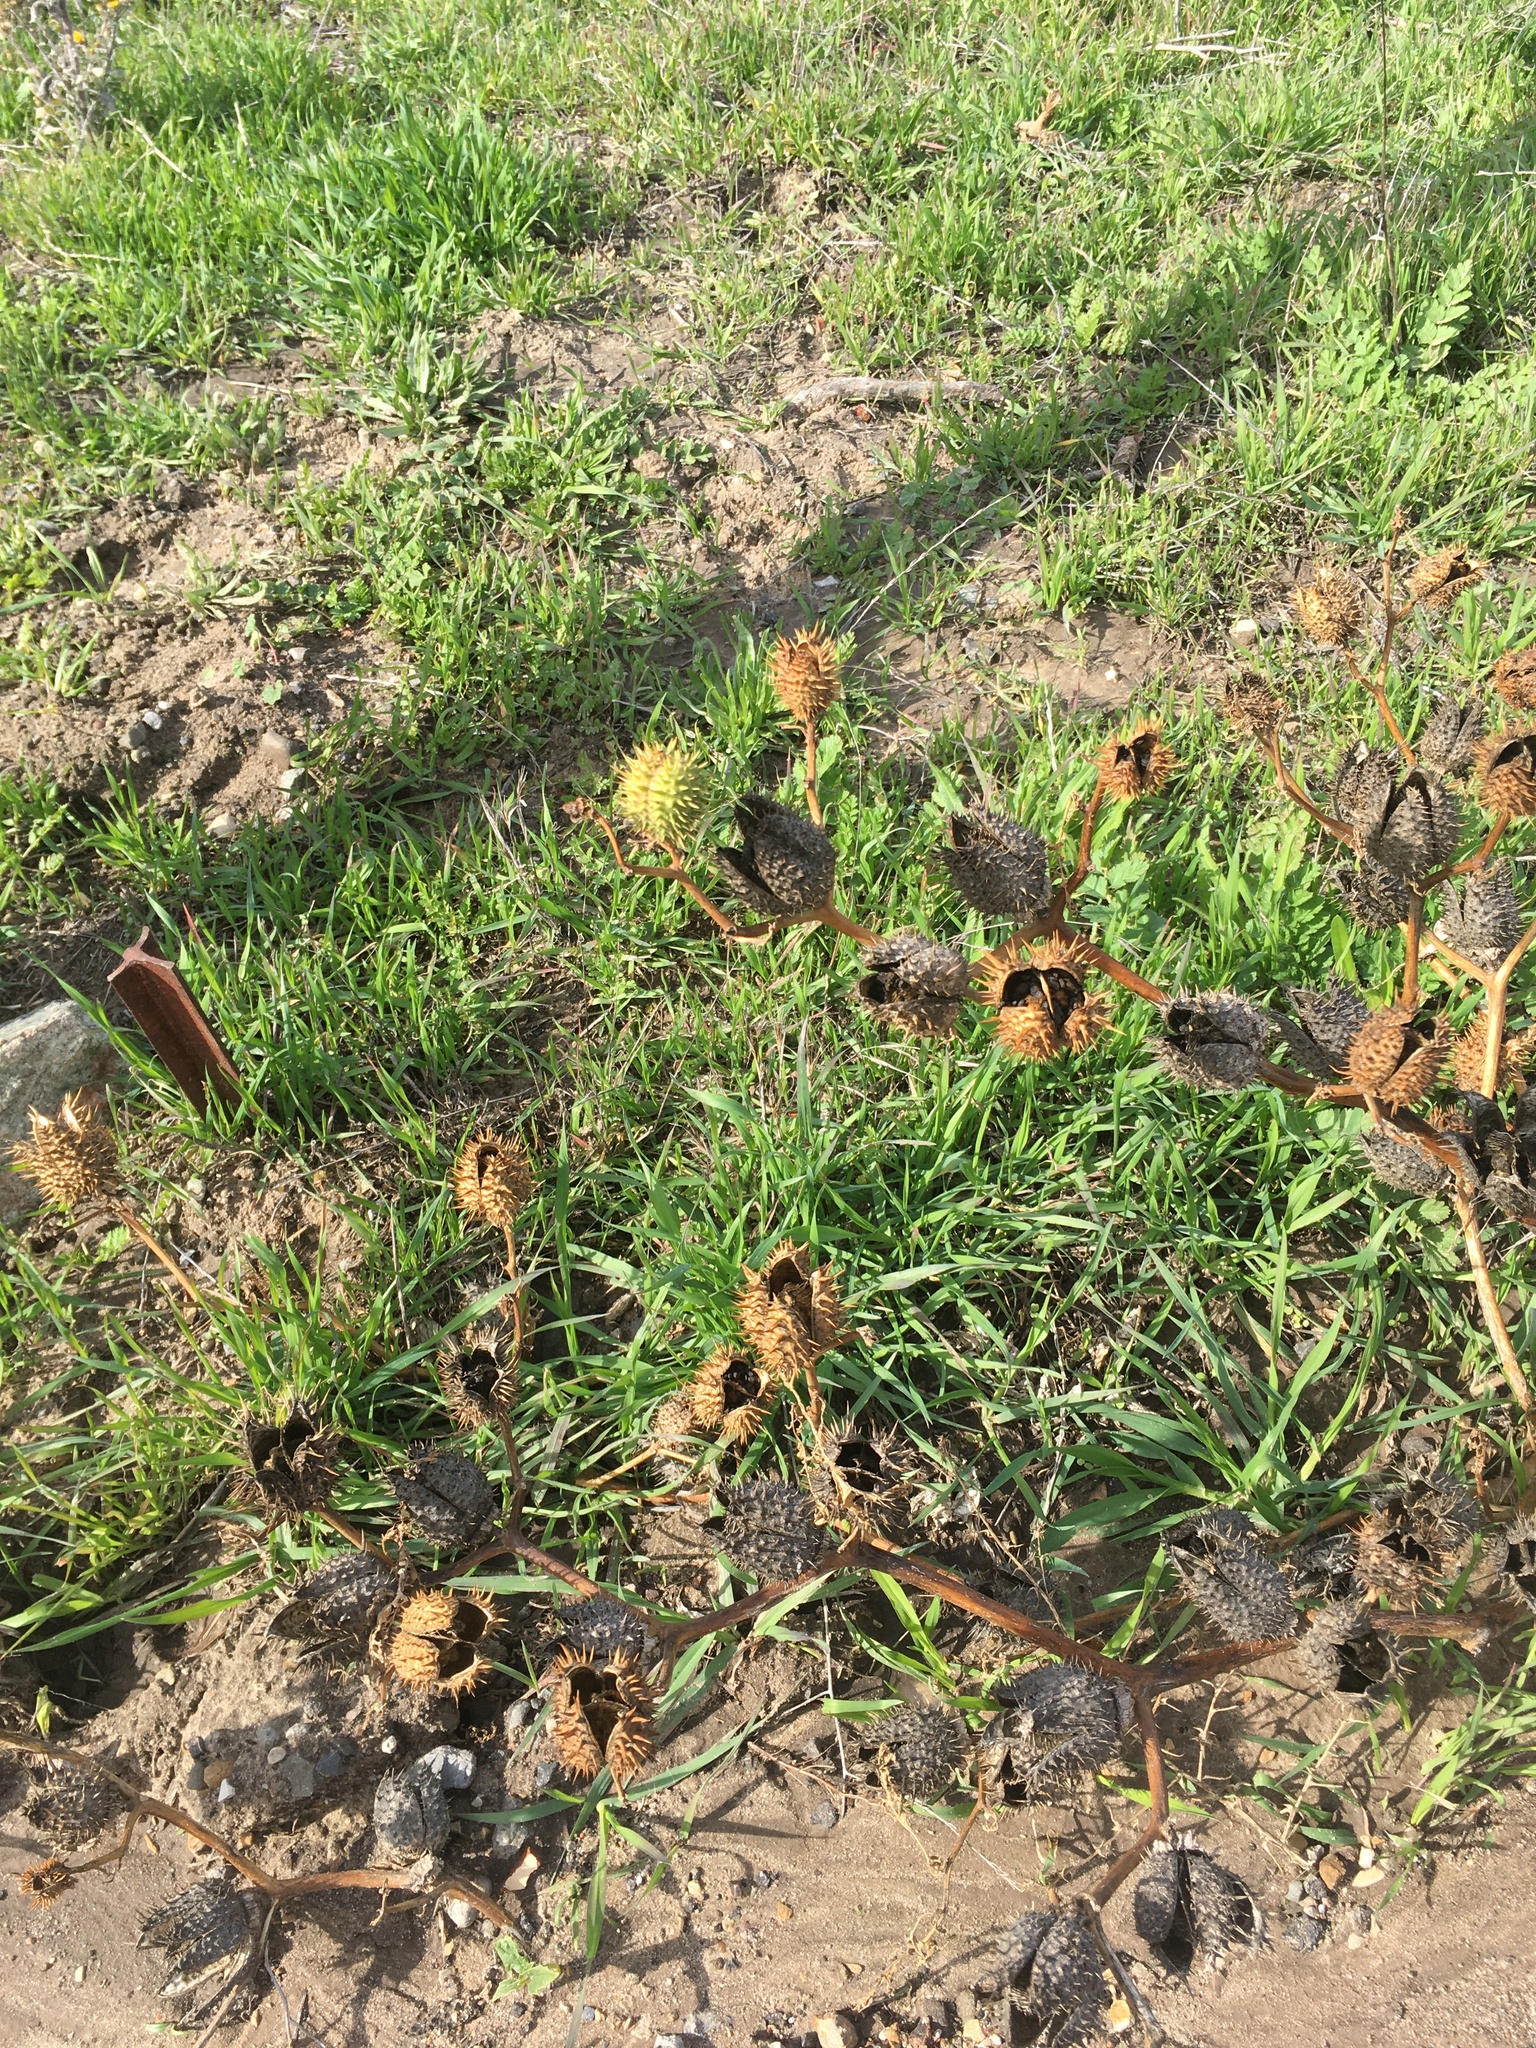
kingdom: Plantae
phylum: Tracheophyta
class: Magnoliopsida
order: Solanales
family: Solanaceae
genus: Datura
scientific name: Datura stramonium
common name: Thorn-apple
